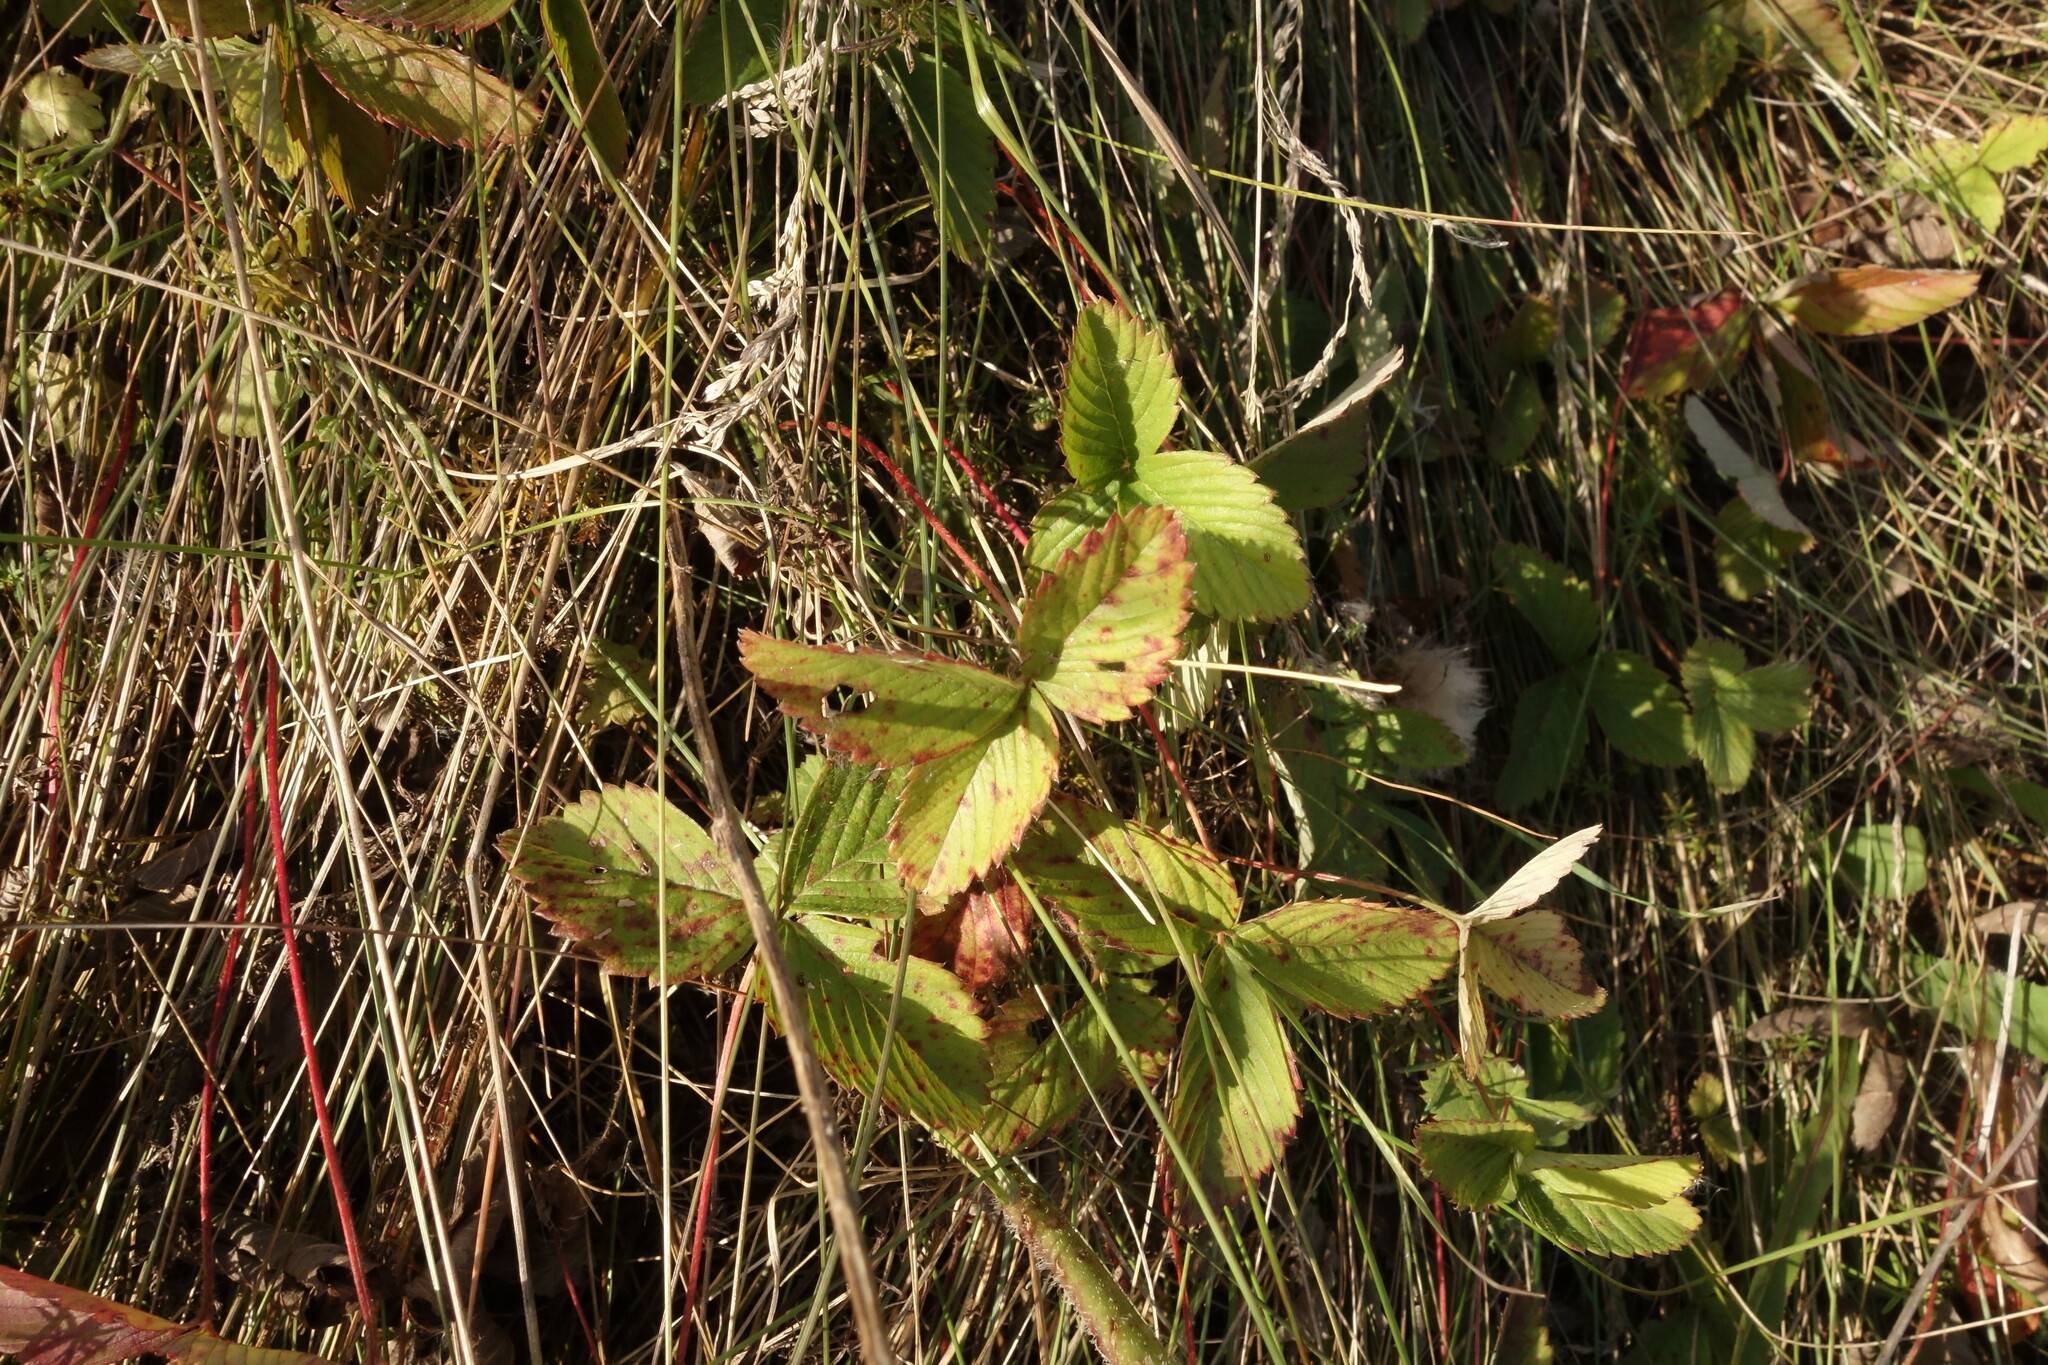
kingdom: Plantae
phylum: Tracheophyta
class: Magnoliopsida
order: Rosales
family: Rosaceae
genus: Fragaria
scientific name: Fragaria viridis
